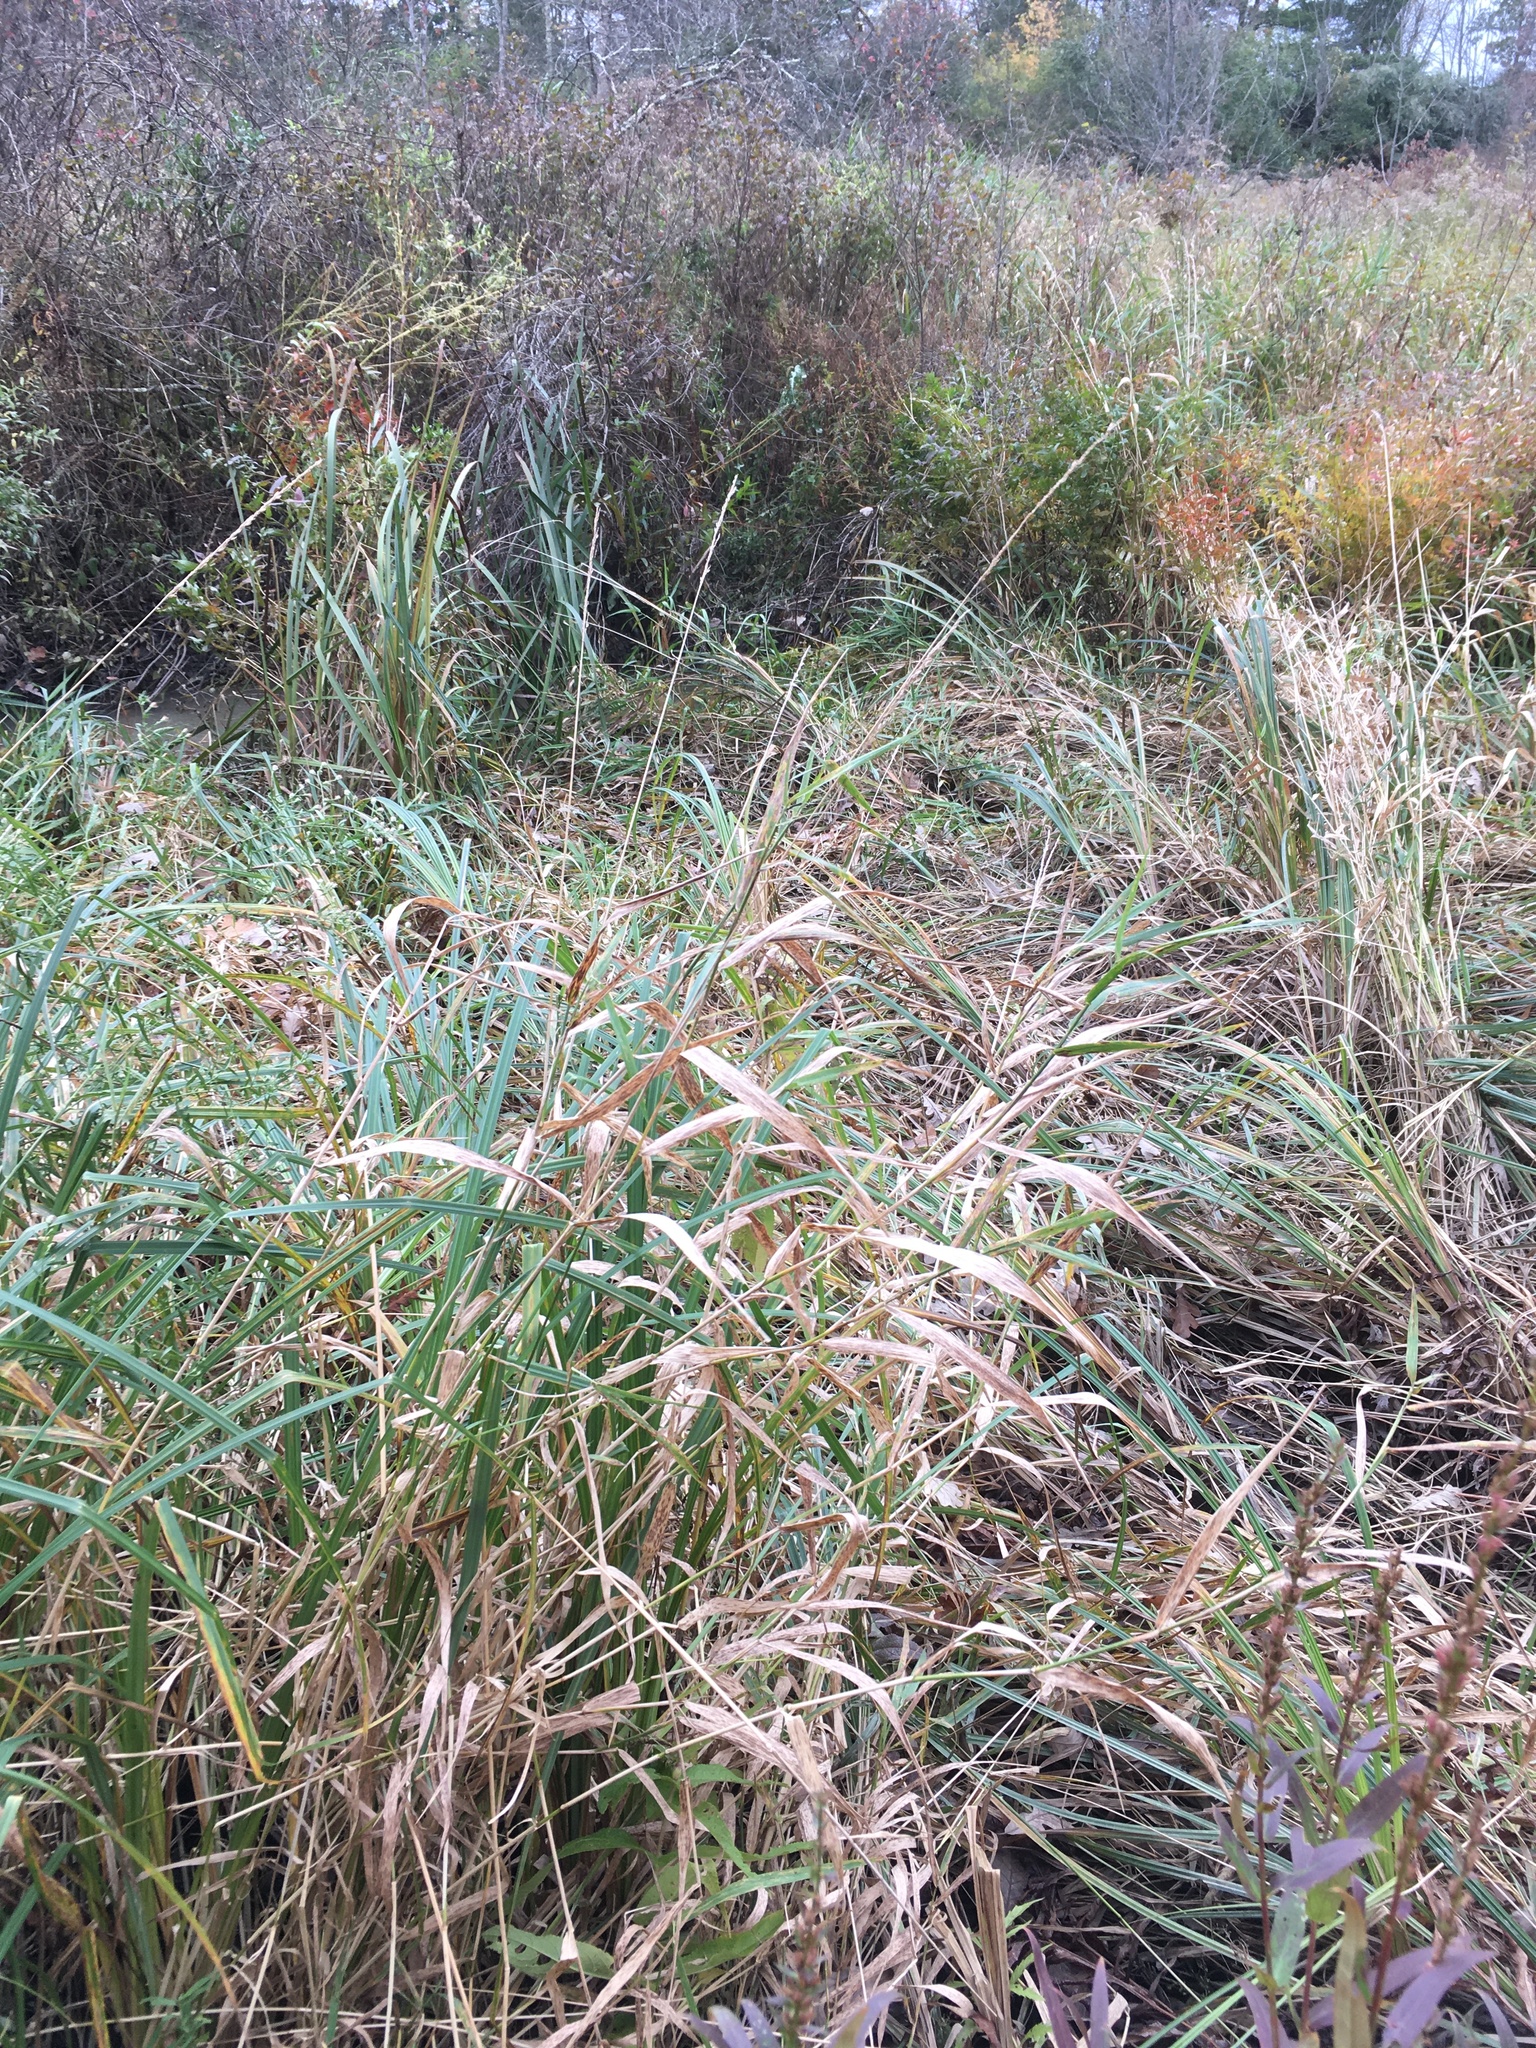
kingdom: Plantae
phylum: Tracheophyta
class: Liliopsida
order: Poales
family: Poaceae
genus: Phalaris
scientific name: Phalaris arundinacea
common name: Reed canary-grass
